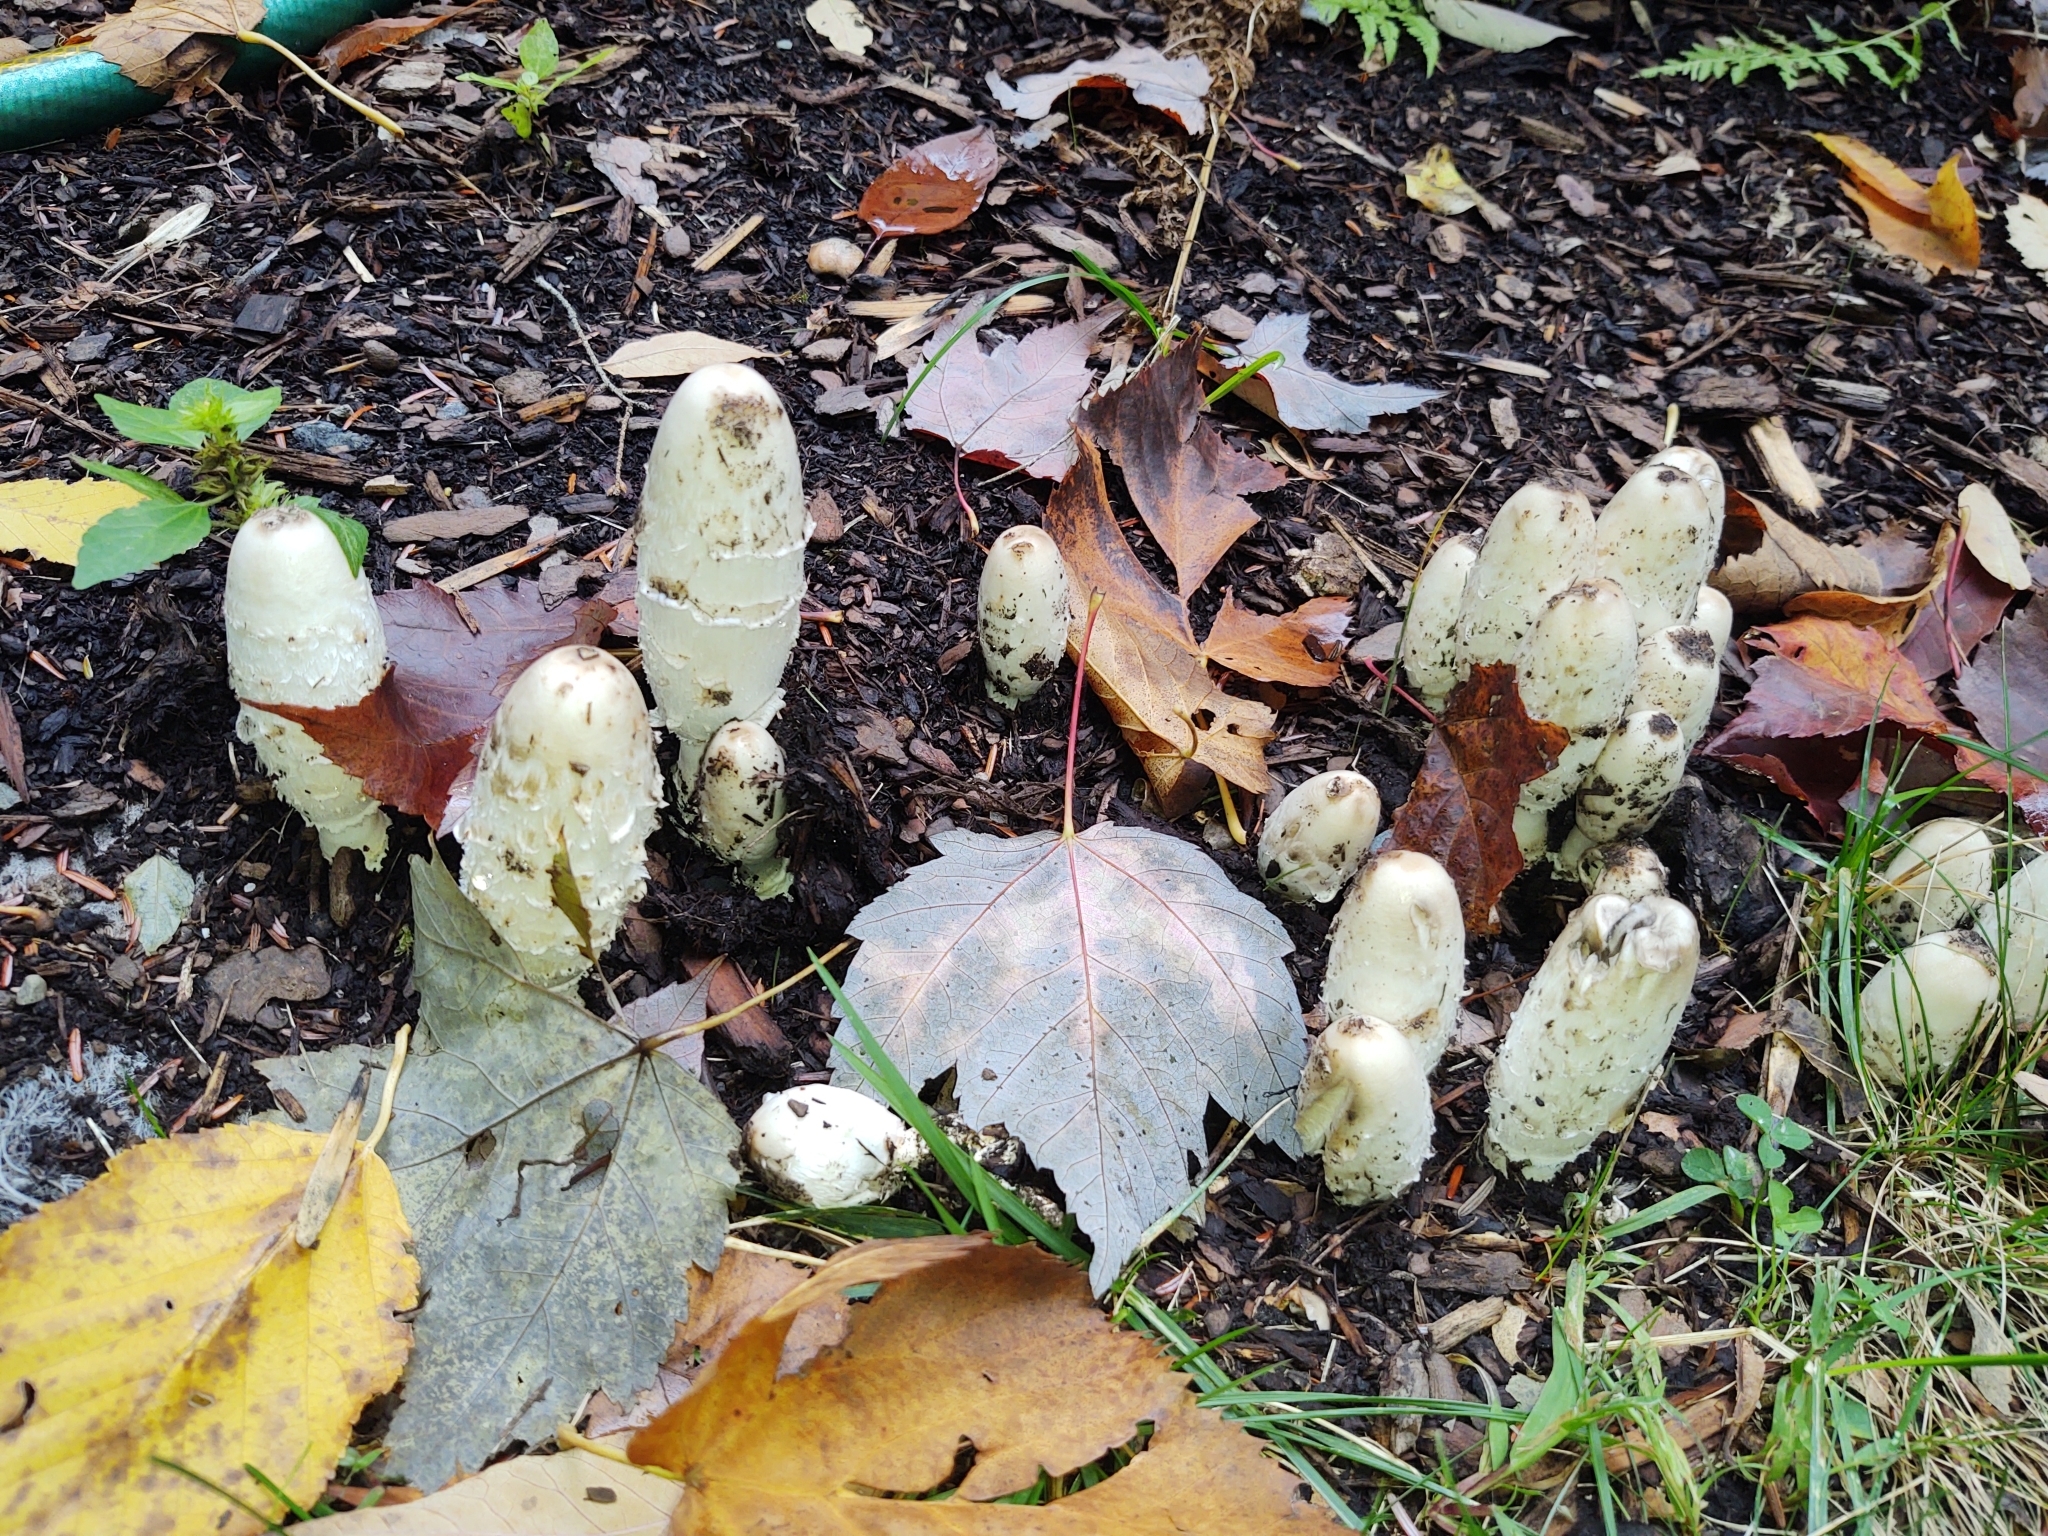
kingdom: Fungi
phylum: Basidiomycota
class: Agaricomycetes
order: Agaricales
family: Agaricaceae
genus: Coprinus
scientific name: Coprinus comatus
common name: Lawyer's wig
